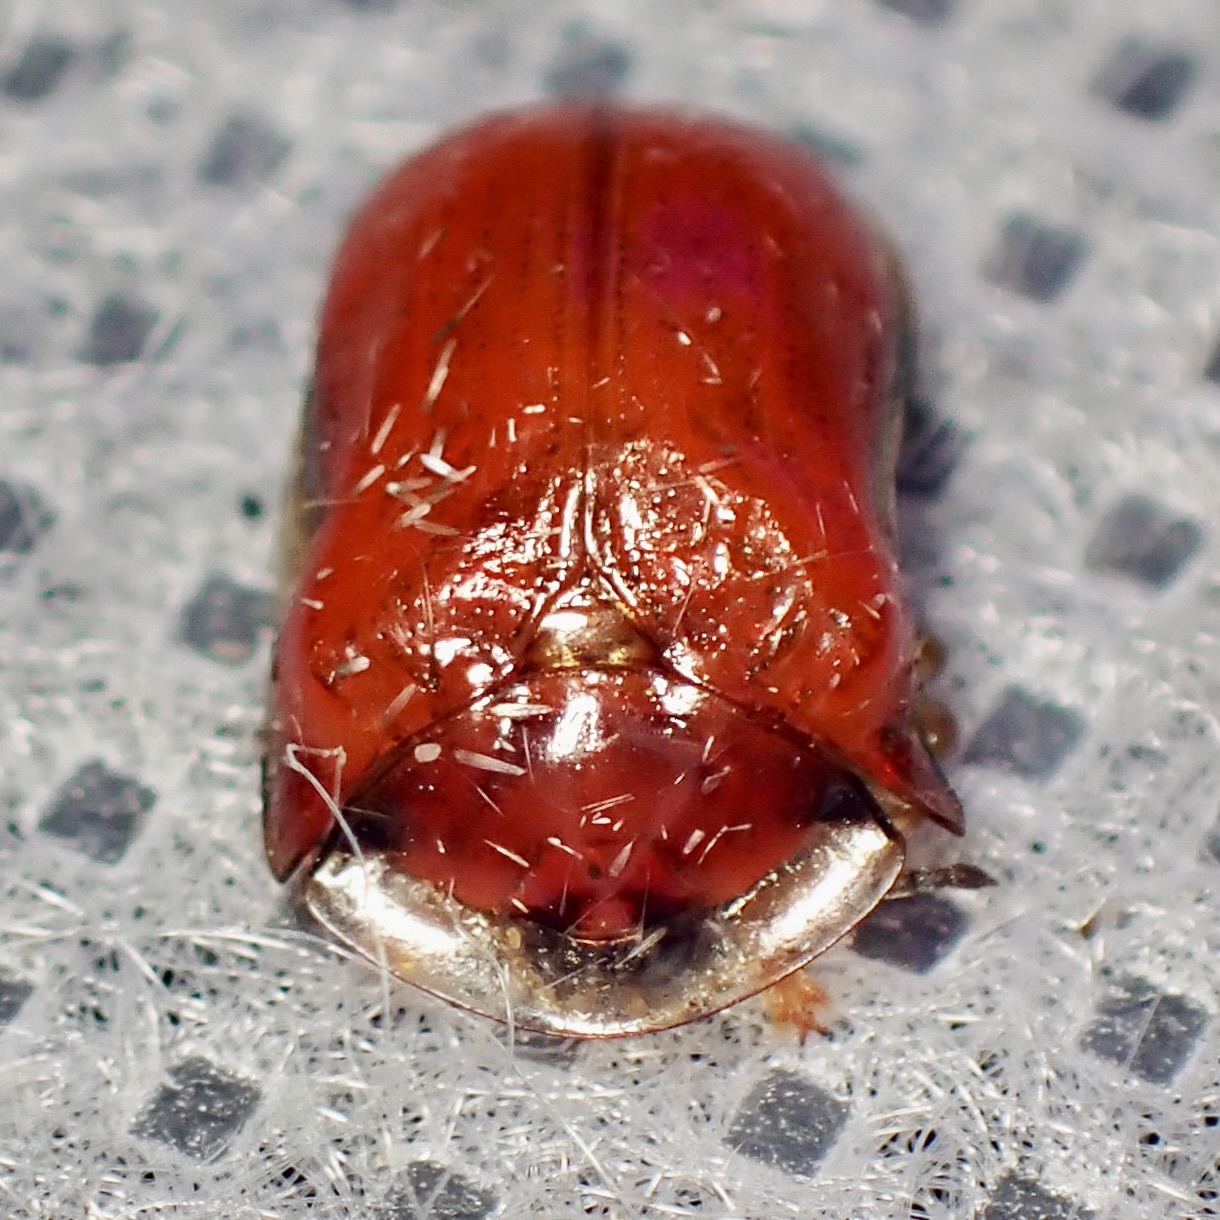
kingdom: Animalia
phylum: Arthropoda
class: Insecta
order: Coleoptera
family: Chrysomelidae
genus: Charidotella
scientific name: Charidotella emarginata
